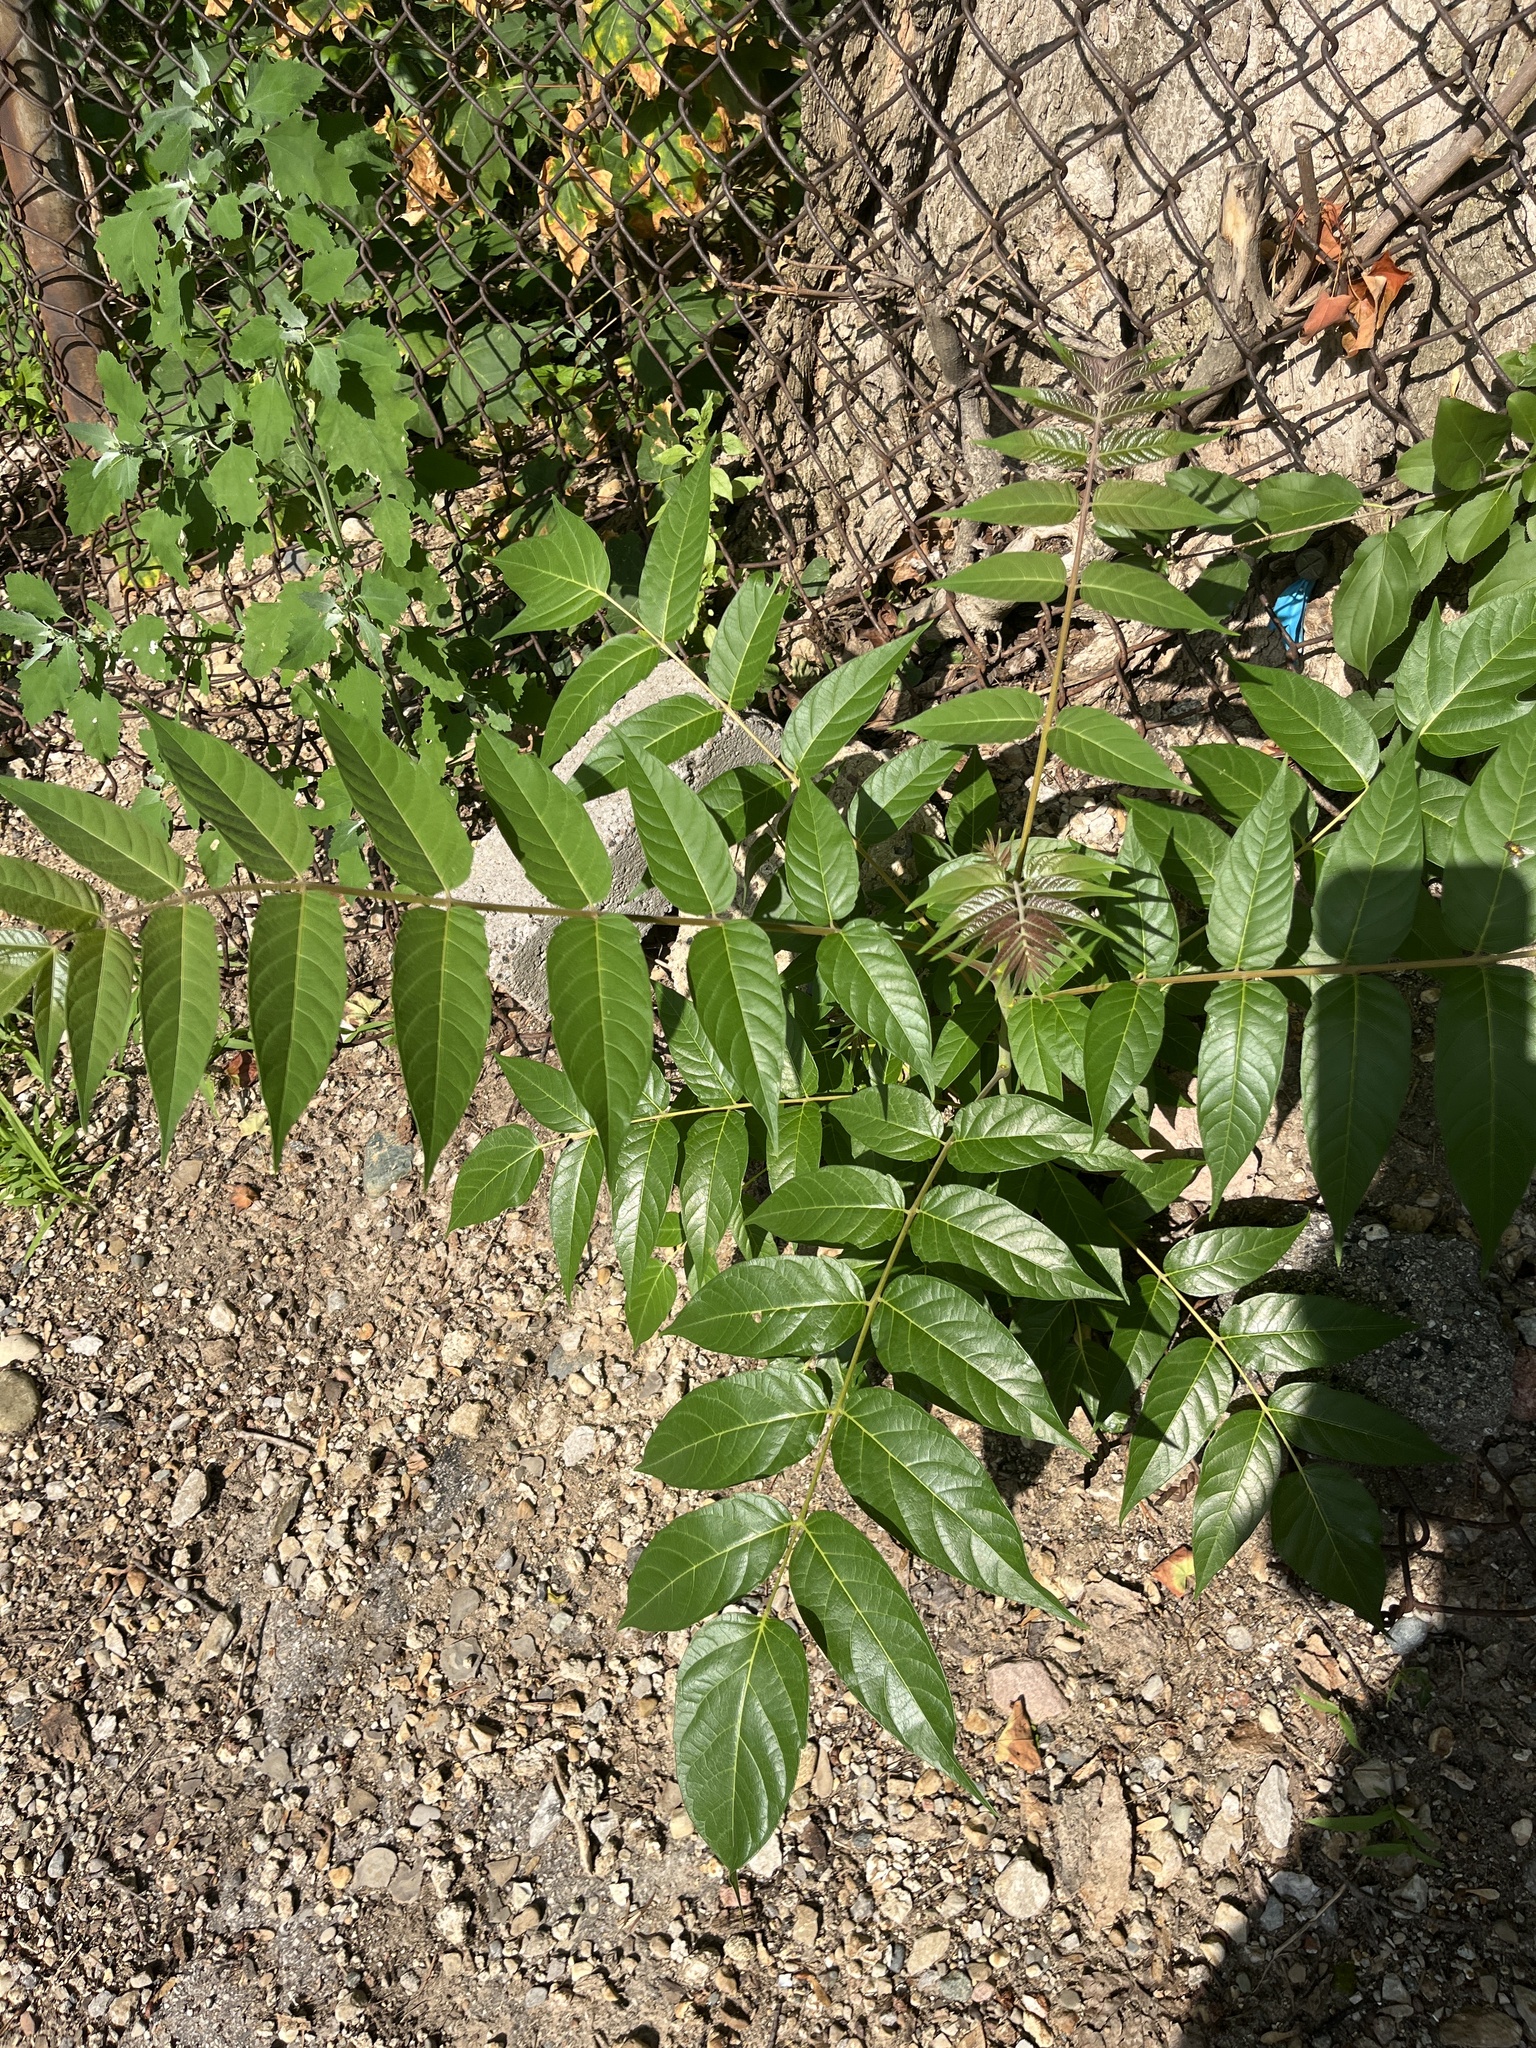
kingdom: Plantae
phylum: Tracheophyta
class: Magnoliopsida
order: Sapindales
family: Simaroubaceae
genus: Ailanthus
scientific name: Ailanthus altissima
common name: Tree-of-heaven
